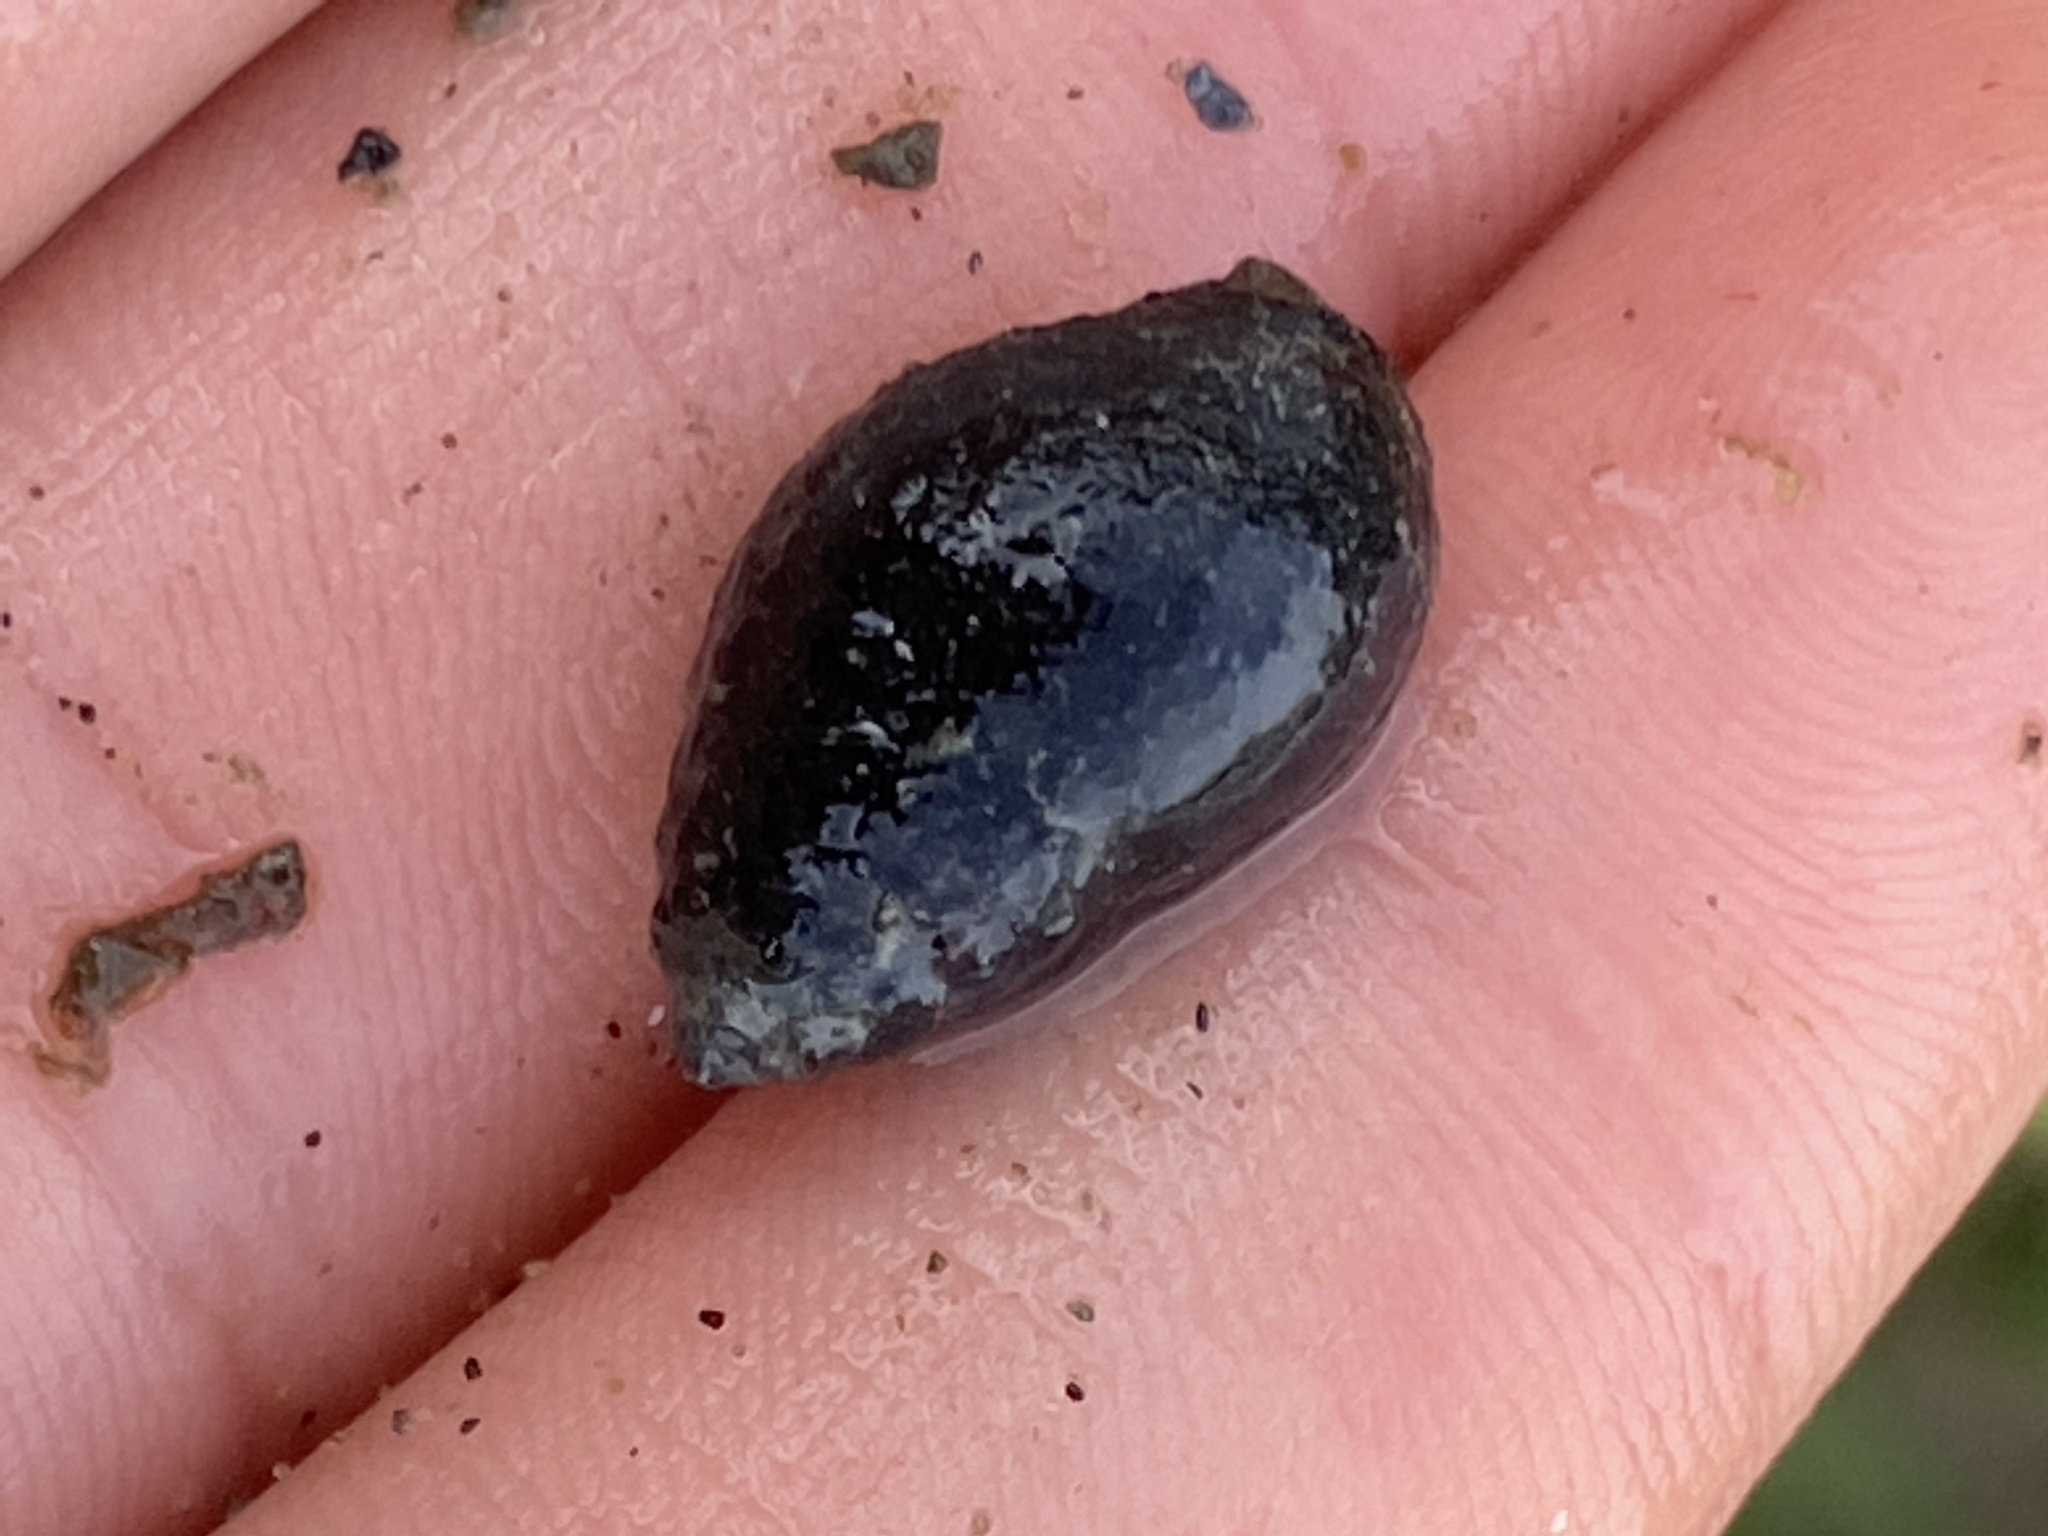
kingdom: Animalia
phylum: Mollusca
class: Gastropoda
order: Neogastropoda
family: Nassariidae
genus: Ilyanassa
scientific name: Ilyanassa obsoleta
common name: Eastern mudsnail
